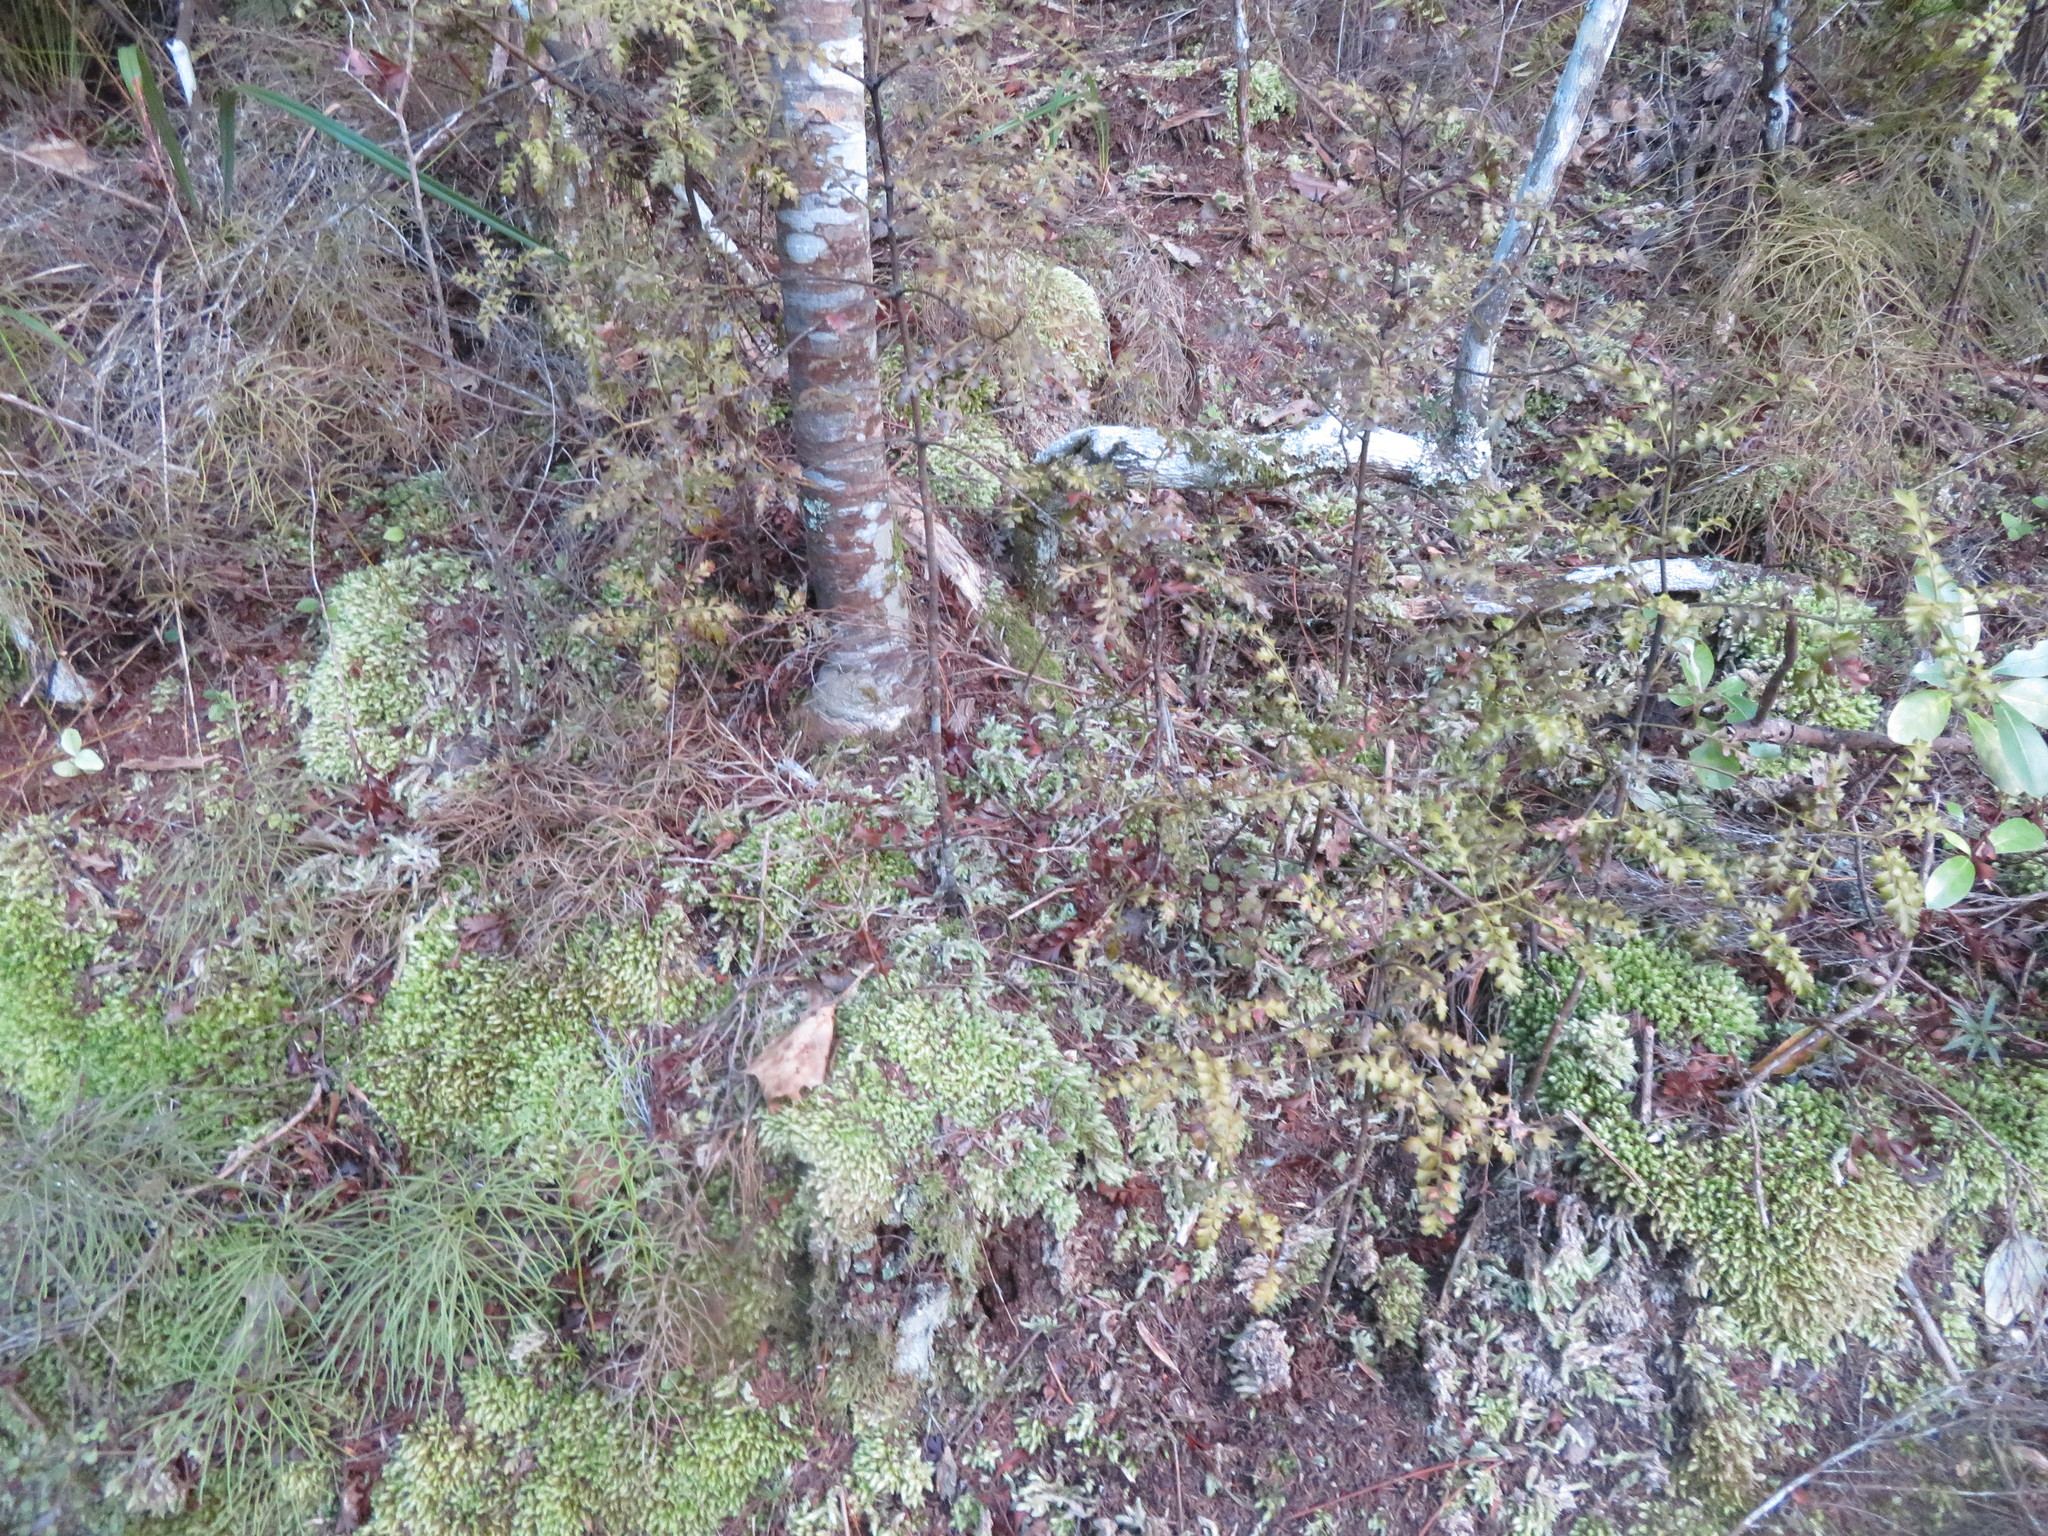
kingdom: Plantae
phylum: Tracheophyta
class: Pinopsida
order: Pinales
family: Phyllocladaceae
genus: Phyllocladus
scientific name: Phyllocladus trichomanoides
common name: Celery pine
